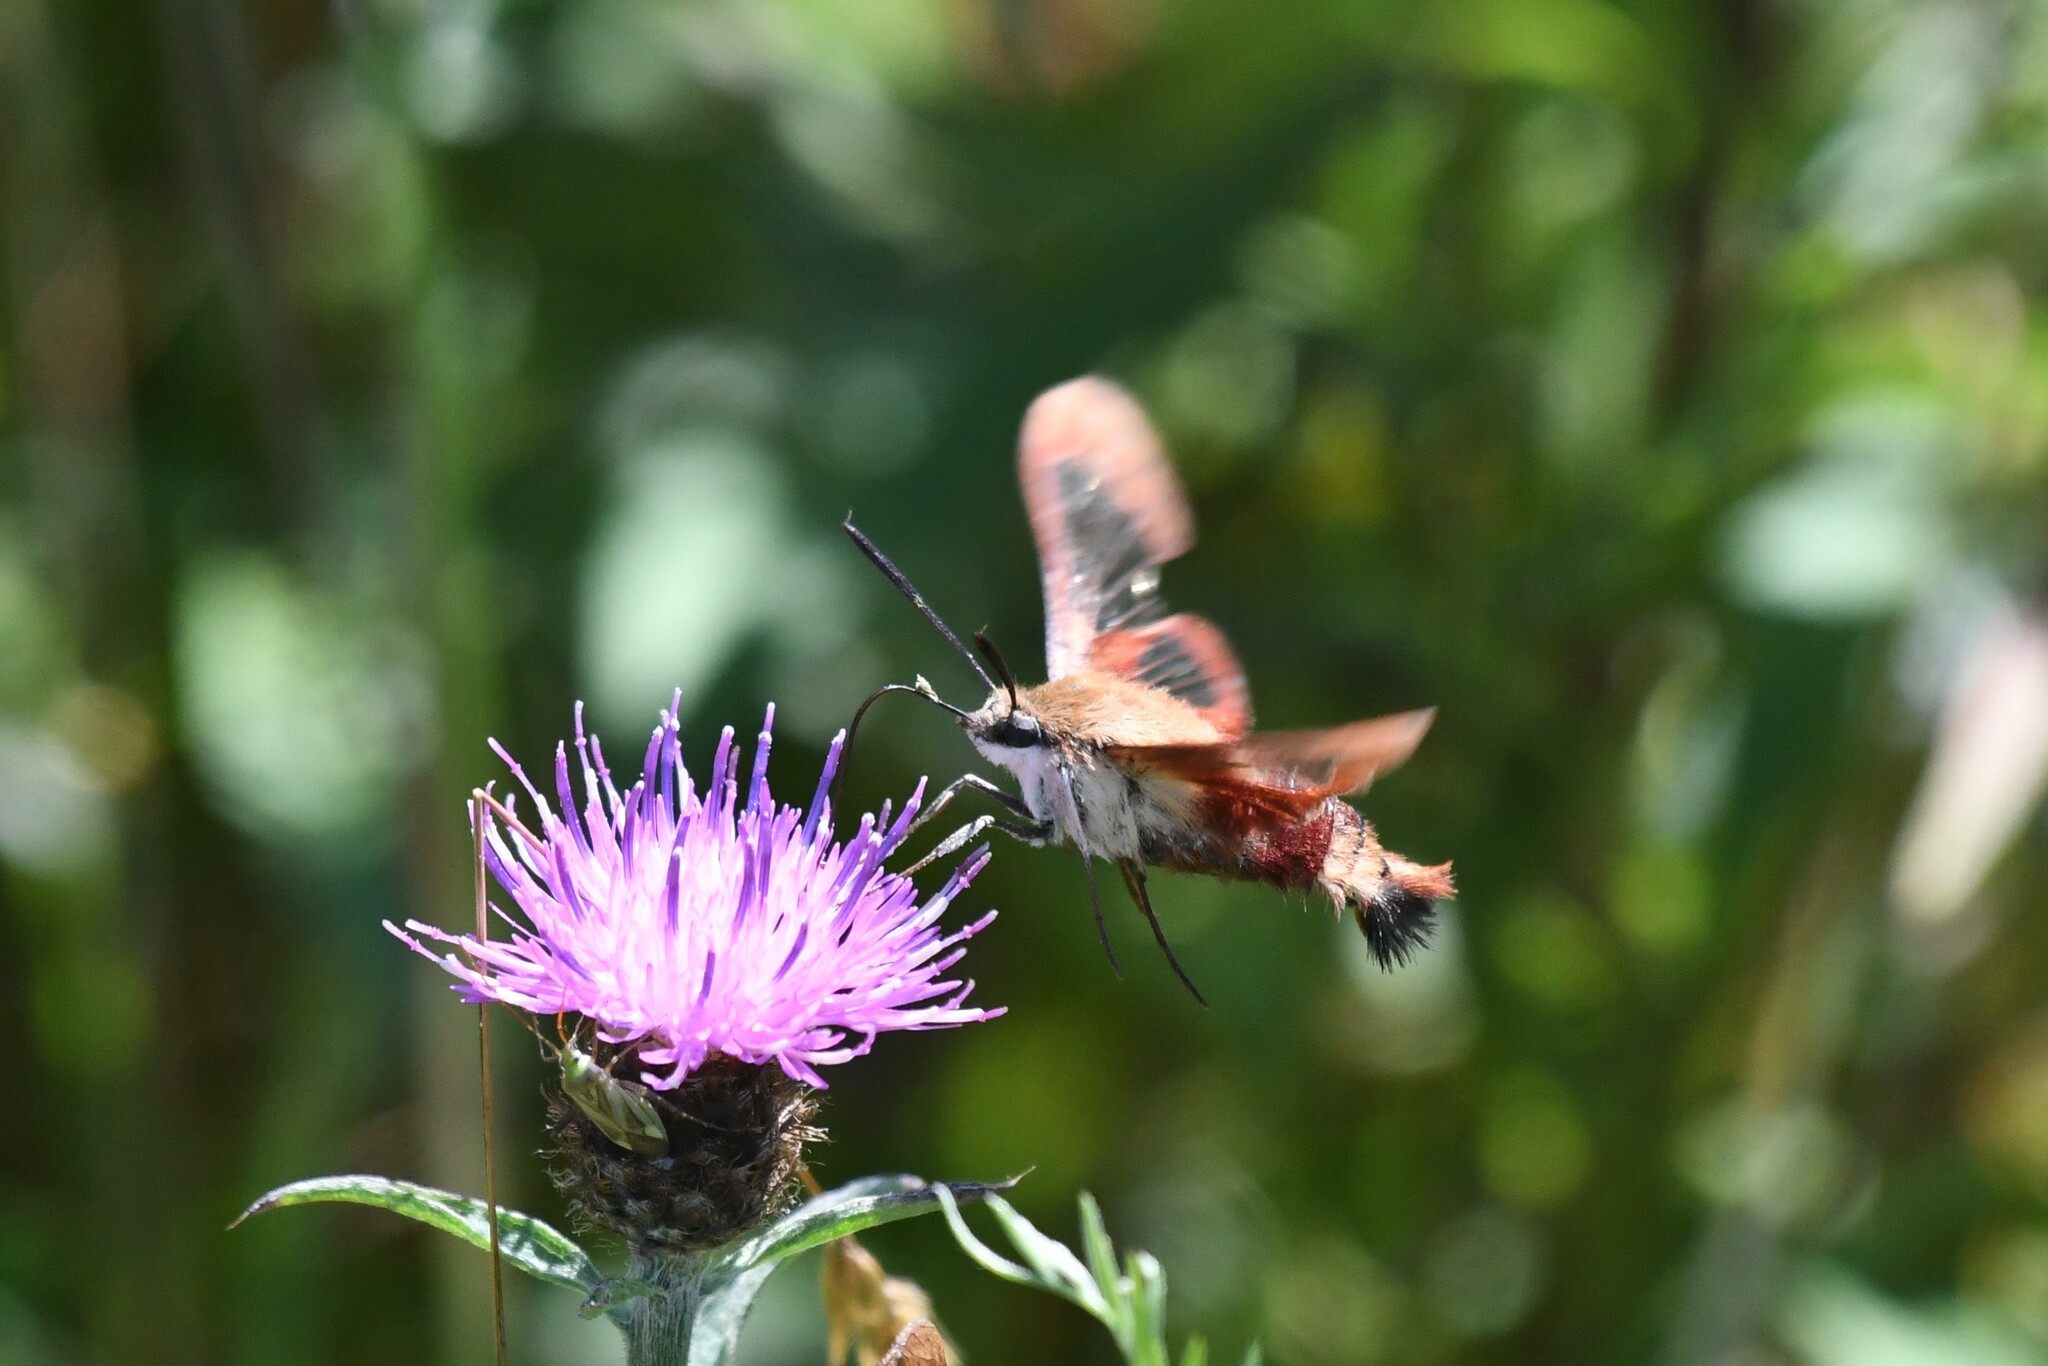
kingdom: Animalia
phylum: Arthropoda
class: Insecta
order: Lepidoptera
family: Sphingidae
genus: Hemaris
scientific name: Hemaris thysbe
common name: Common clear-wing
